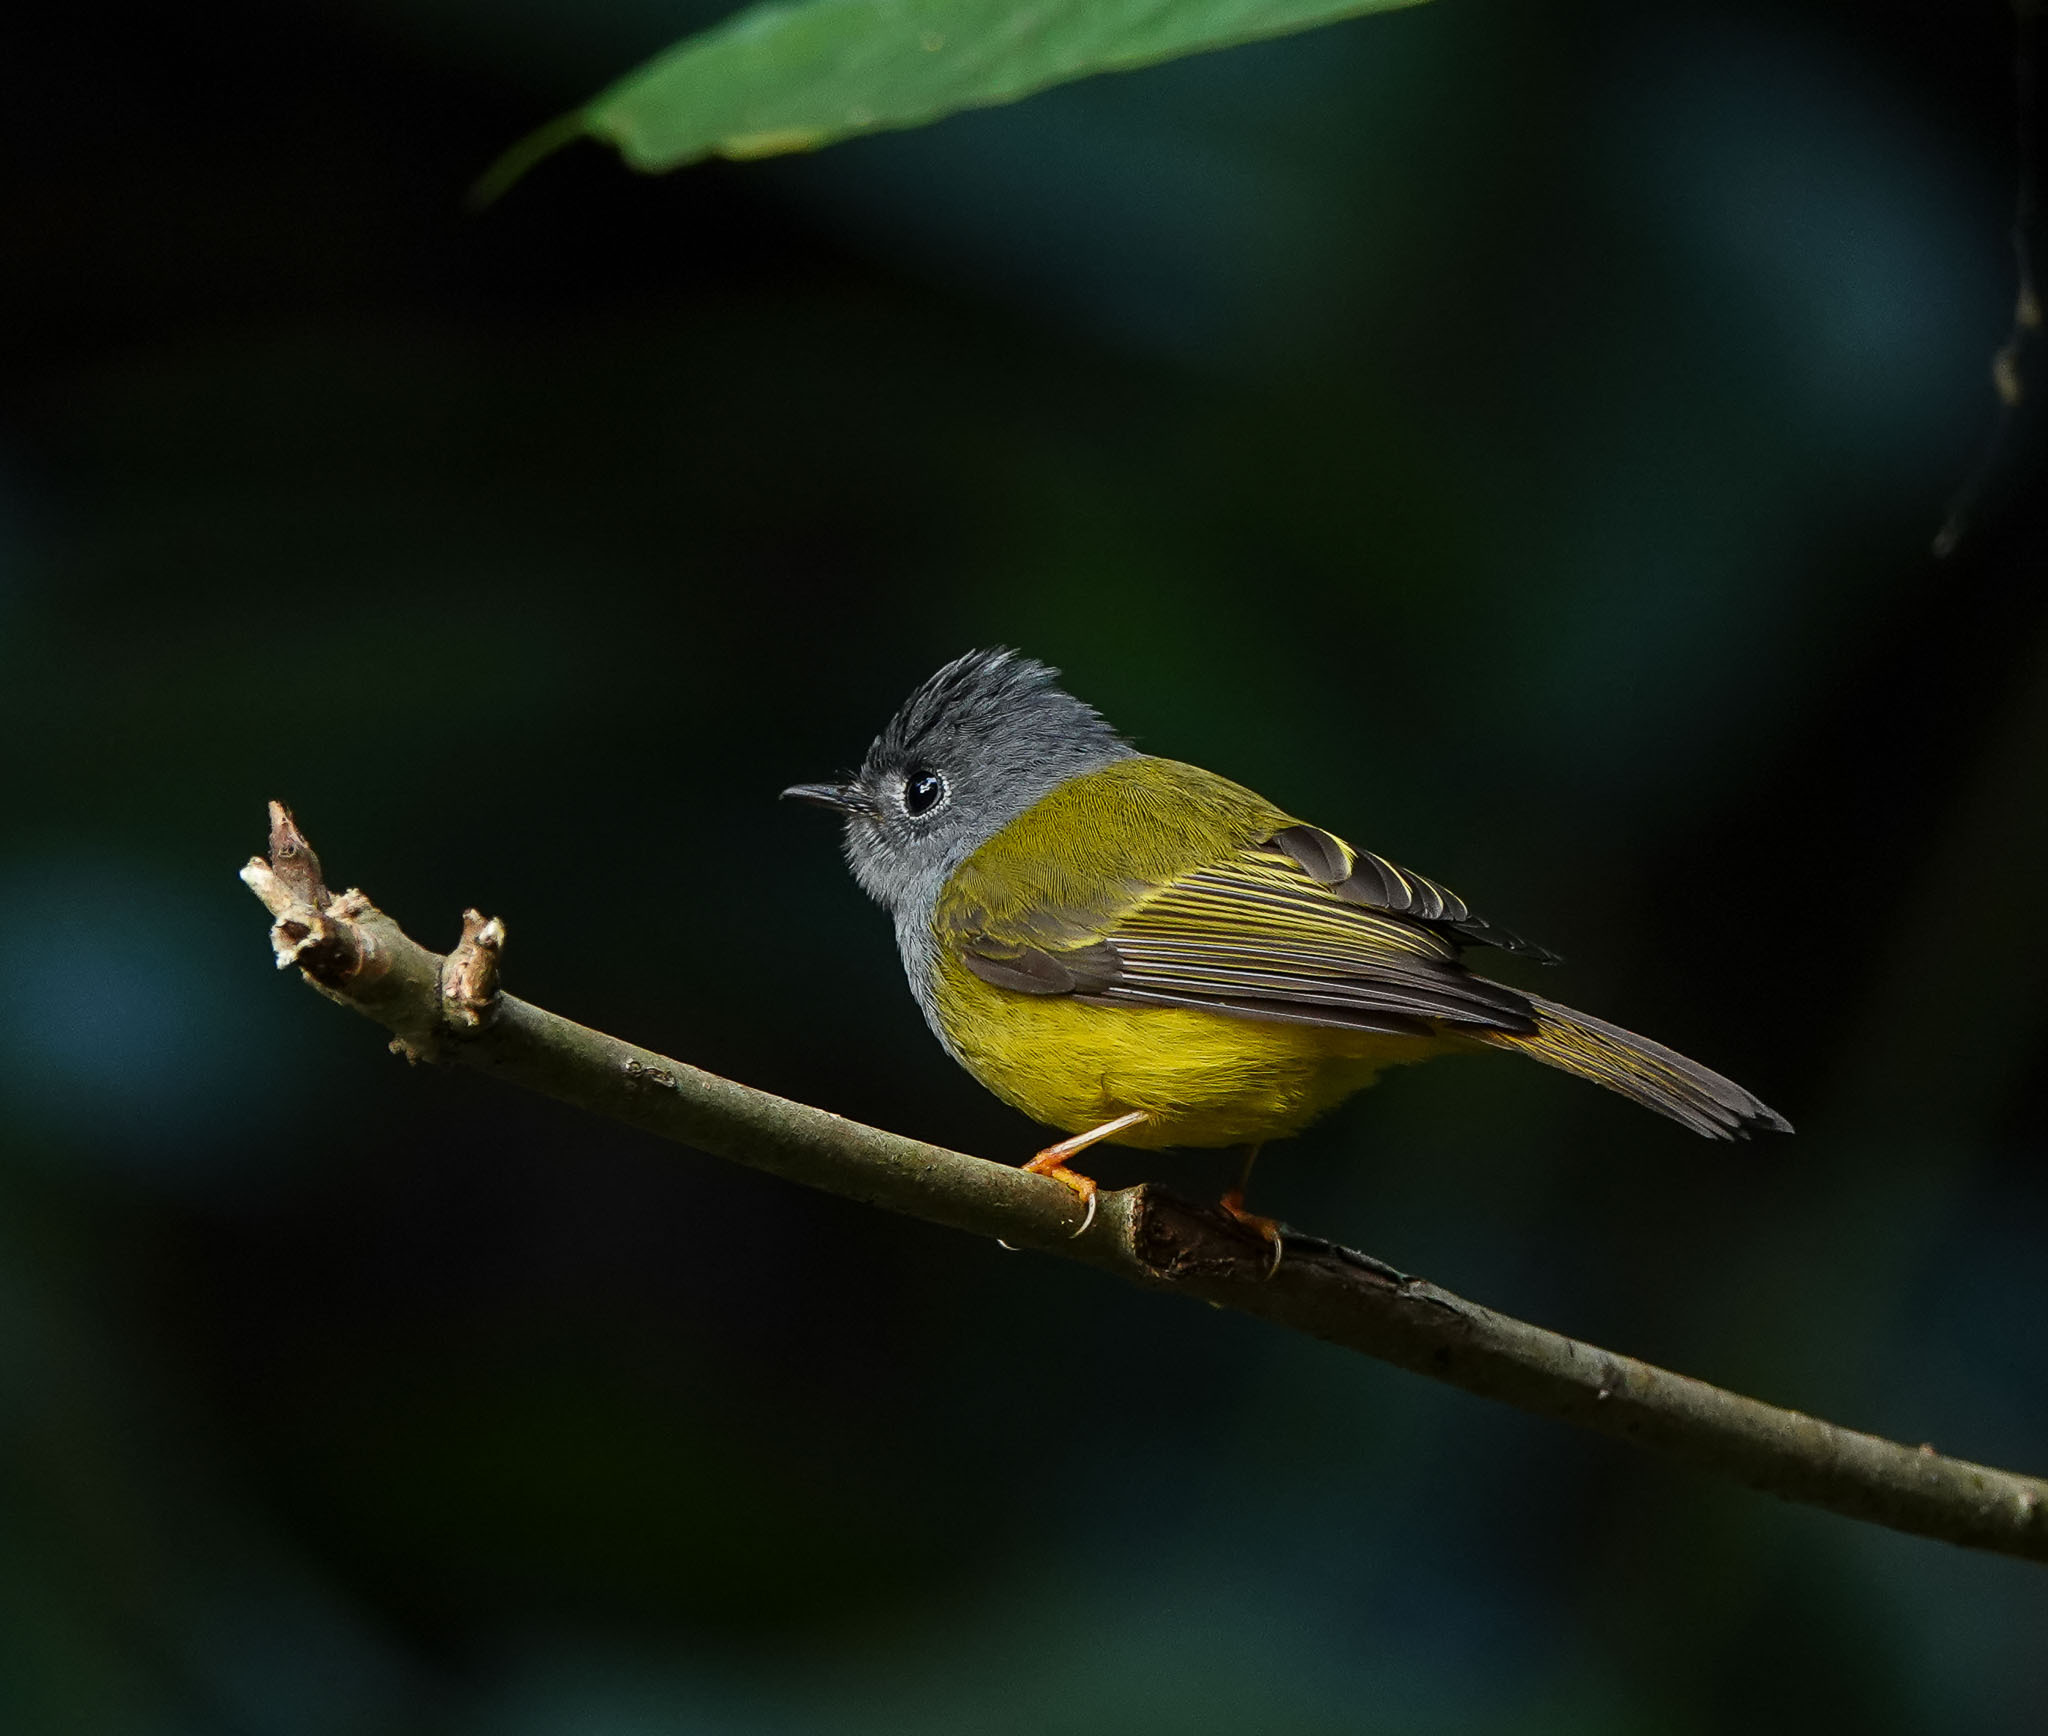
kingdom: Animalia
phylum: Chordata
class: Aves
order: Passeriformes
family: Stenostiridae
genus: Culicicapa
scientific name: Culicicapa ceylonensis
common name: Grey-headed canary-flycatcher
